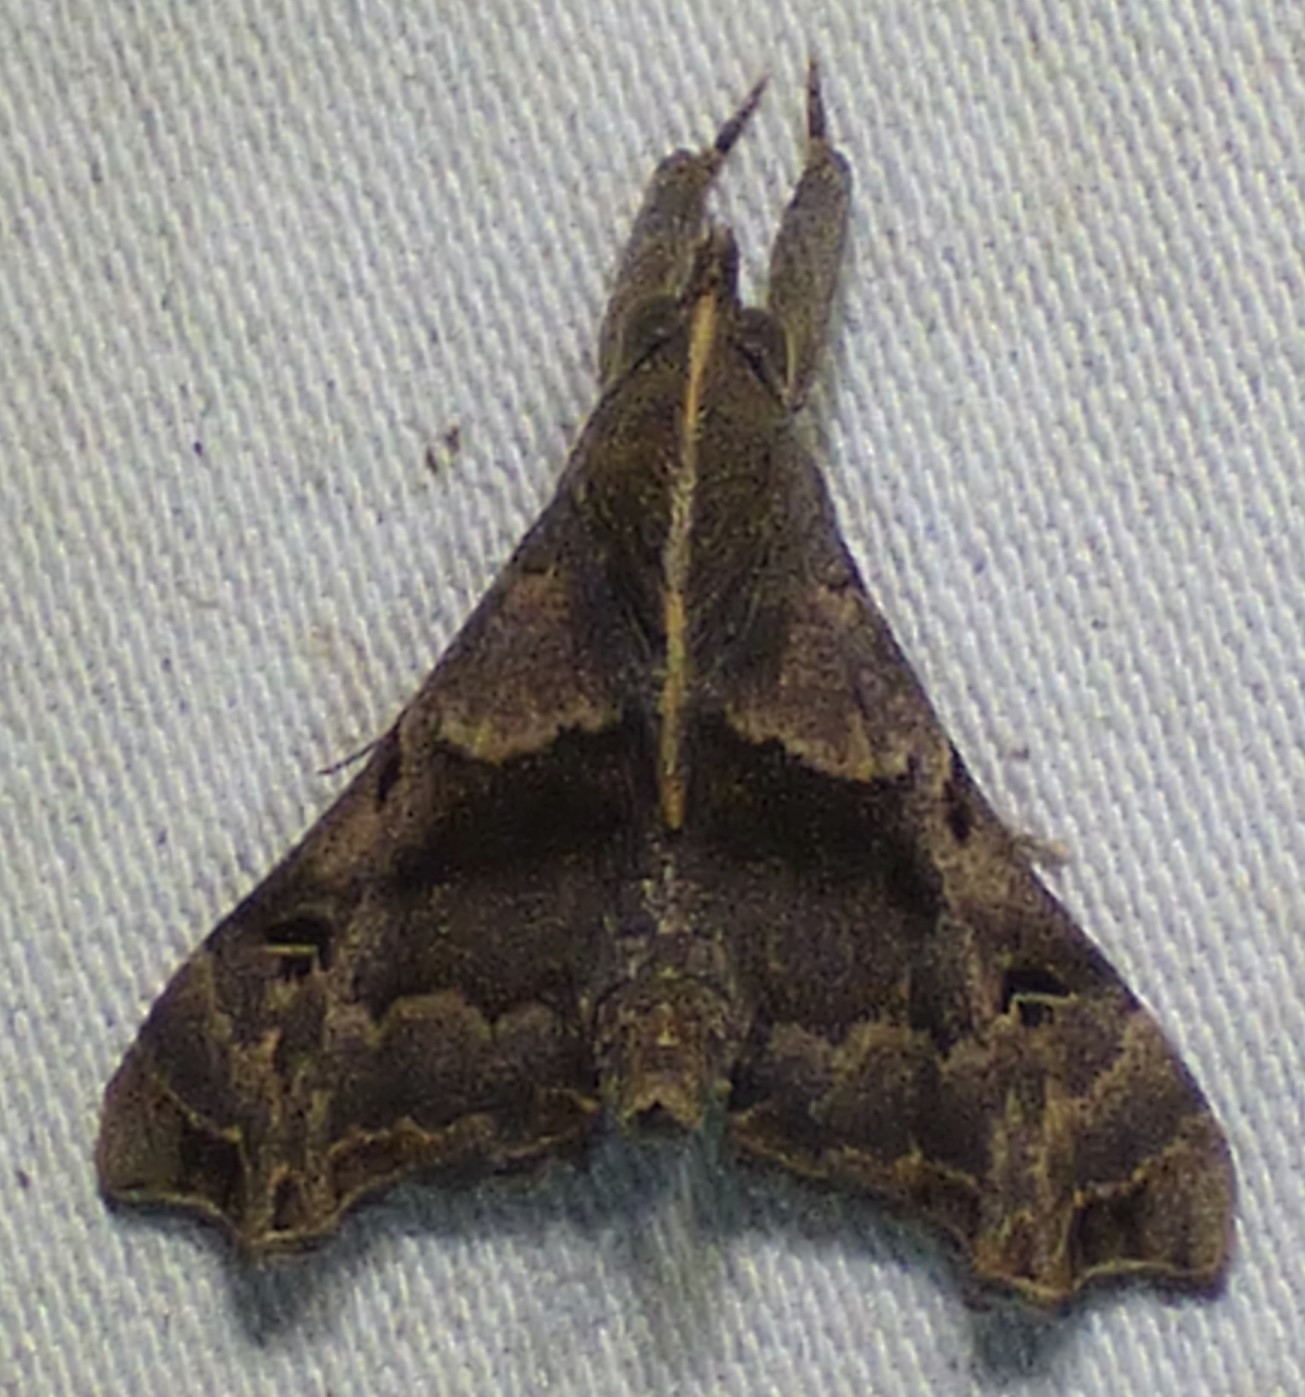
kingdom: Animalia
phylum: Arthropoda
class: Insecta
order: Lepidoptera
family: Erebidae
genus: Palthis
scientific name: Palthis asopialis
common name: Faint-spotted palthis moth
